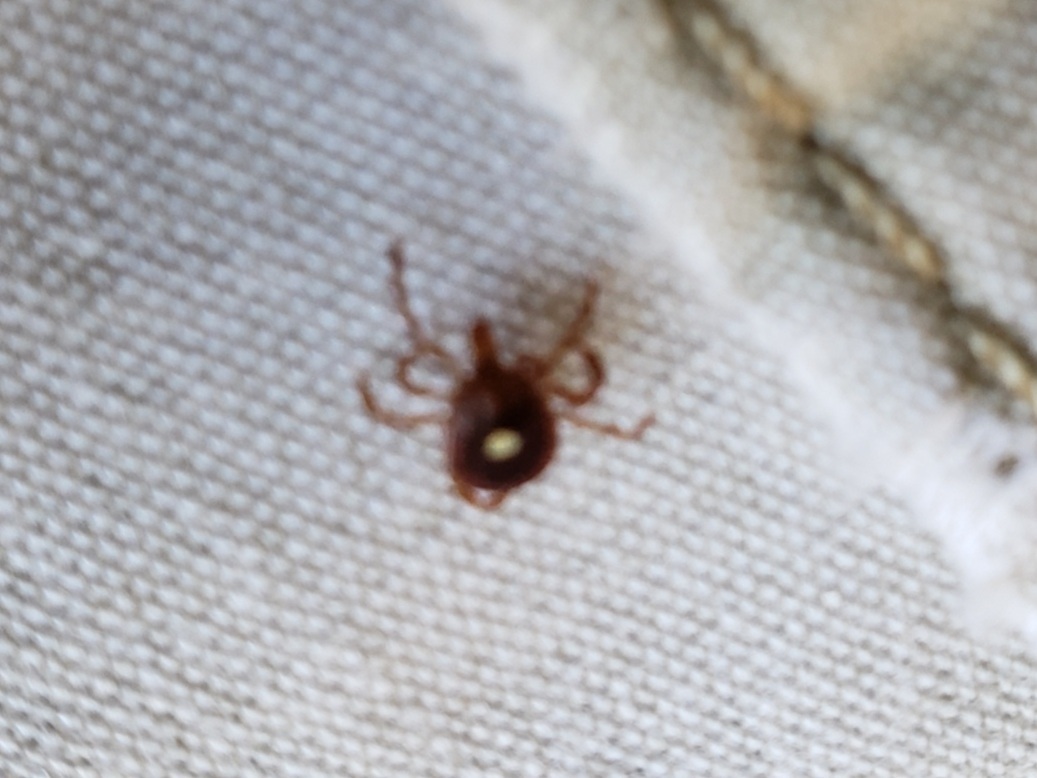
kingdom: Animalia
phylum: Arthropoda
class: Arachnida
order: Ixodida
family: Ixodidae
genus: Amblyomma
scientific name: Amblyomma americanum
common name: Lone star tick
